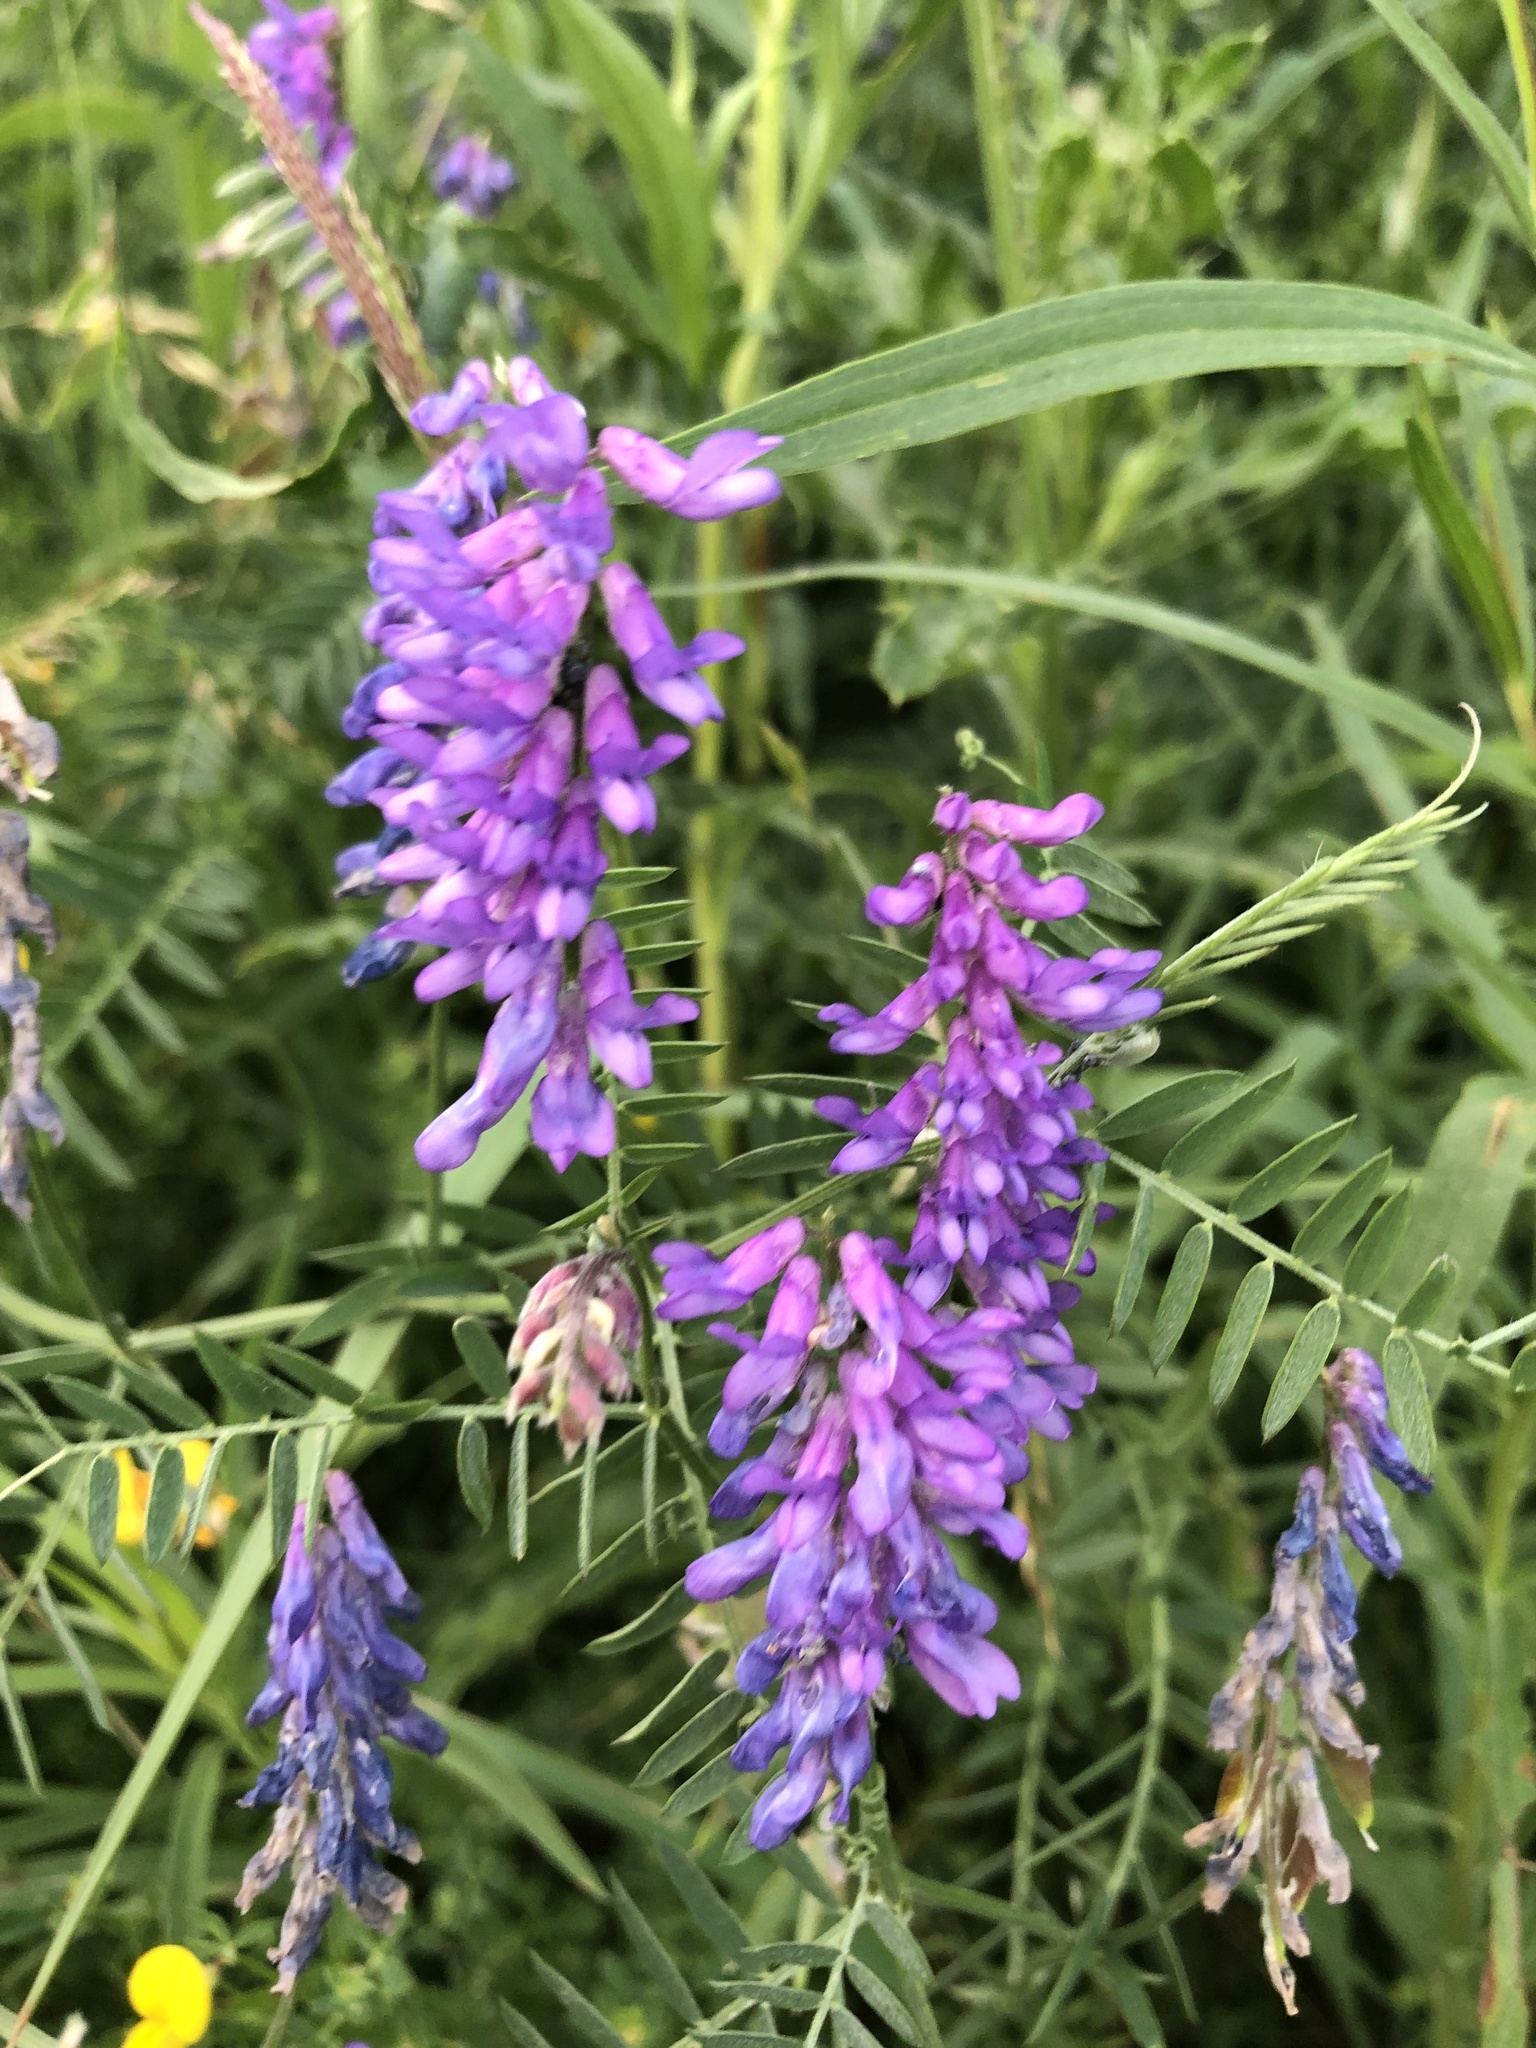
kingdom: Plantae
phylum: Tracheophyta
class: Magnoliopsida
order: Fabales
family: Fabaceae
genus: Vicia
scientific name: Vicia cracca
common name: Bird vetch
